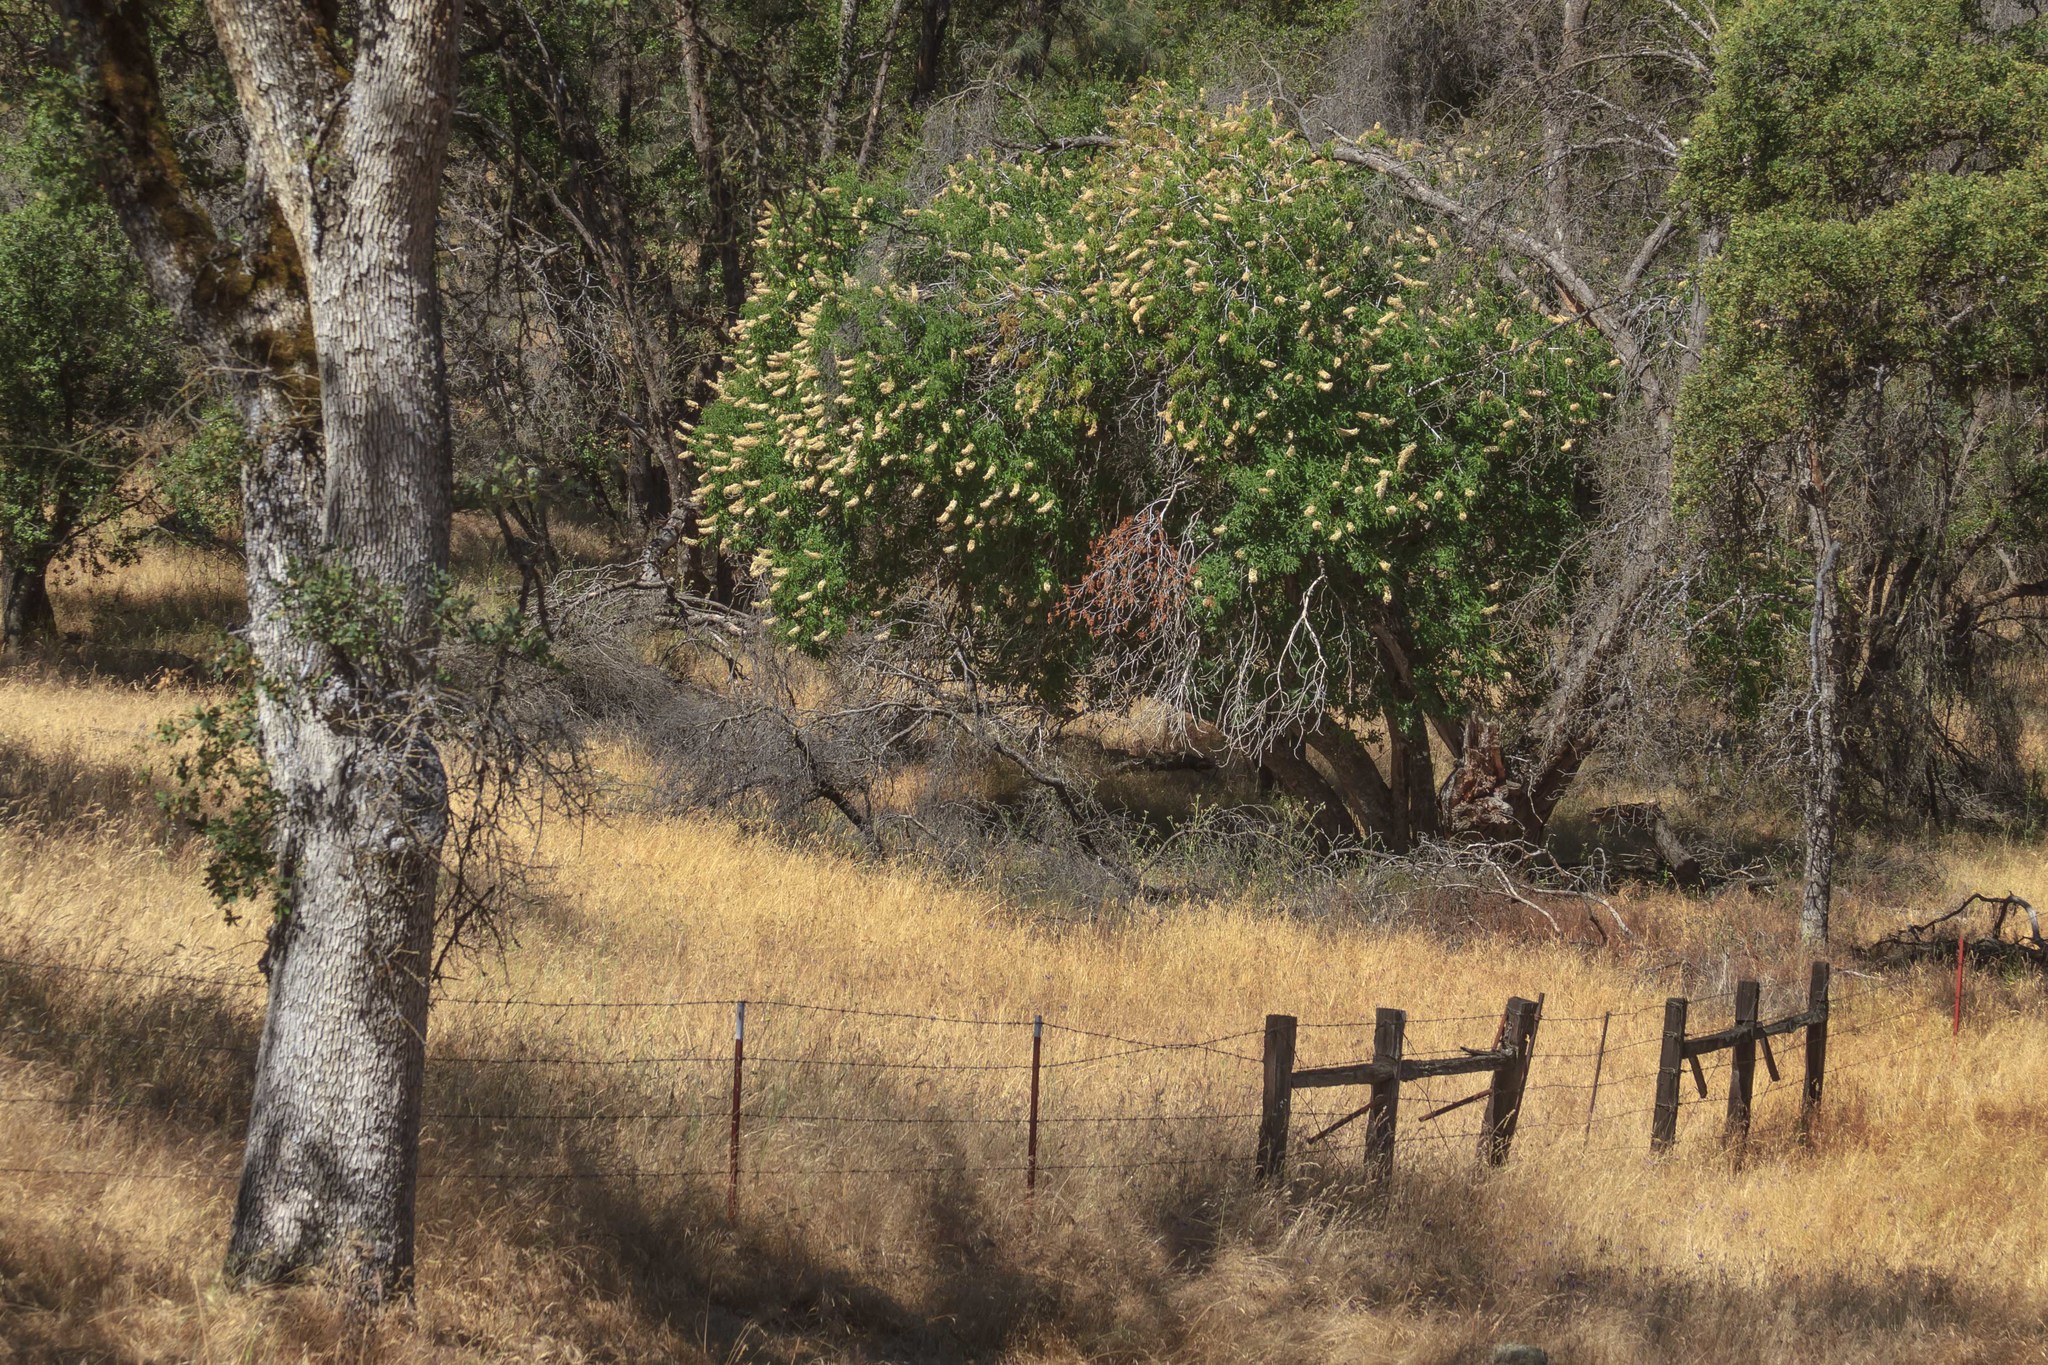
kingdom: Plantae
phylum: Tracheophyta
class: Magnoliopsida
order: Sapindales
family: Sapindaceae
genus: Aesculus
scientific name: Aesculus californica
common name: California buckeye
